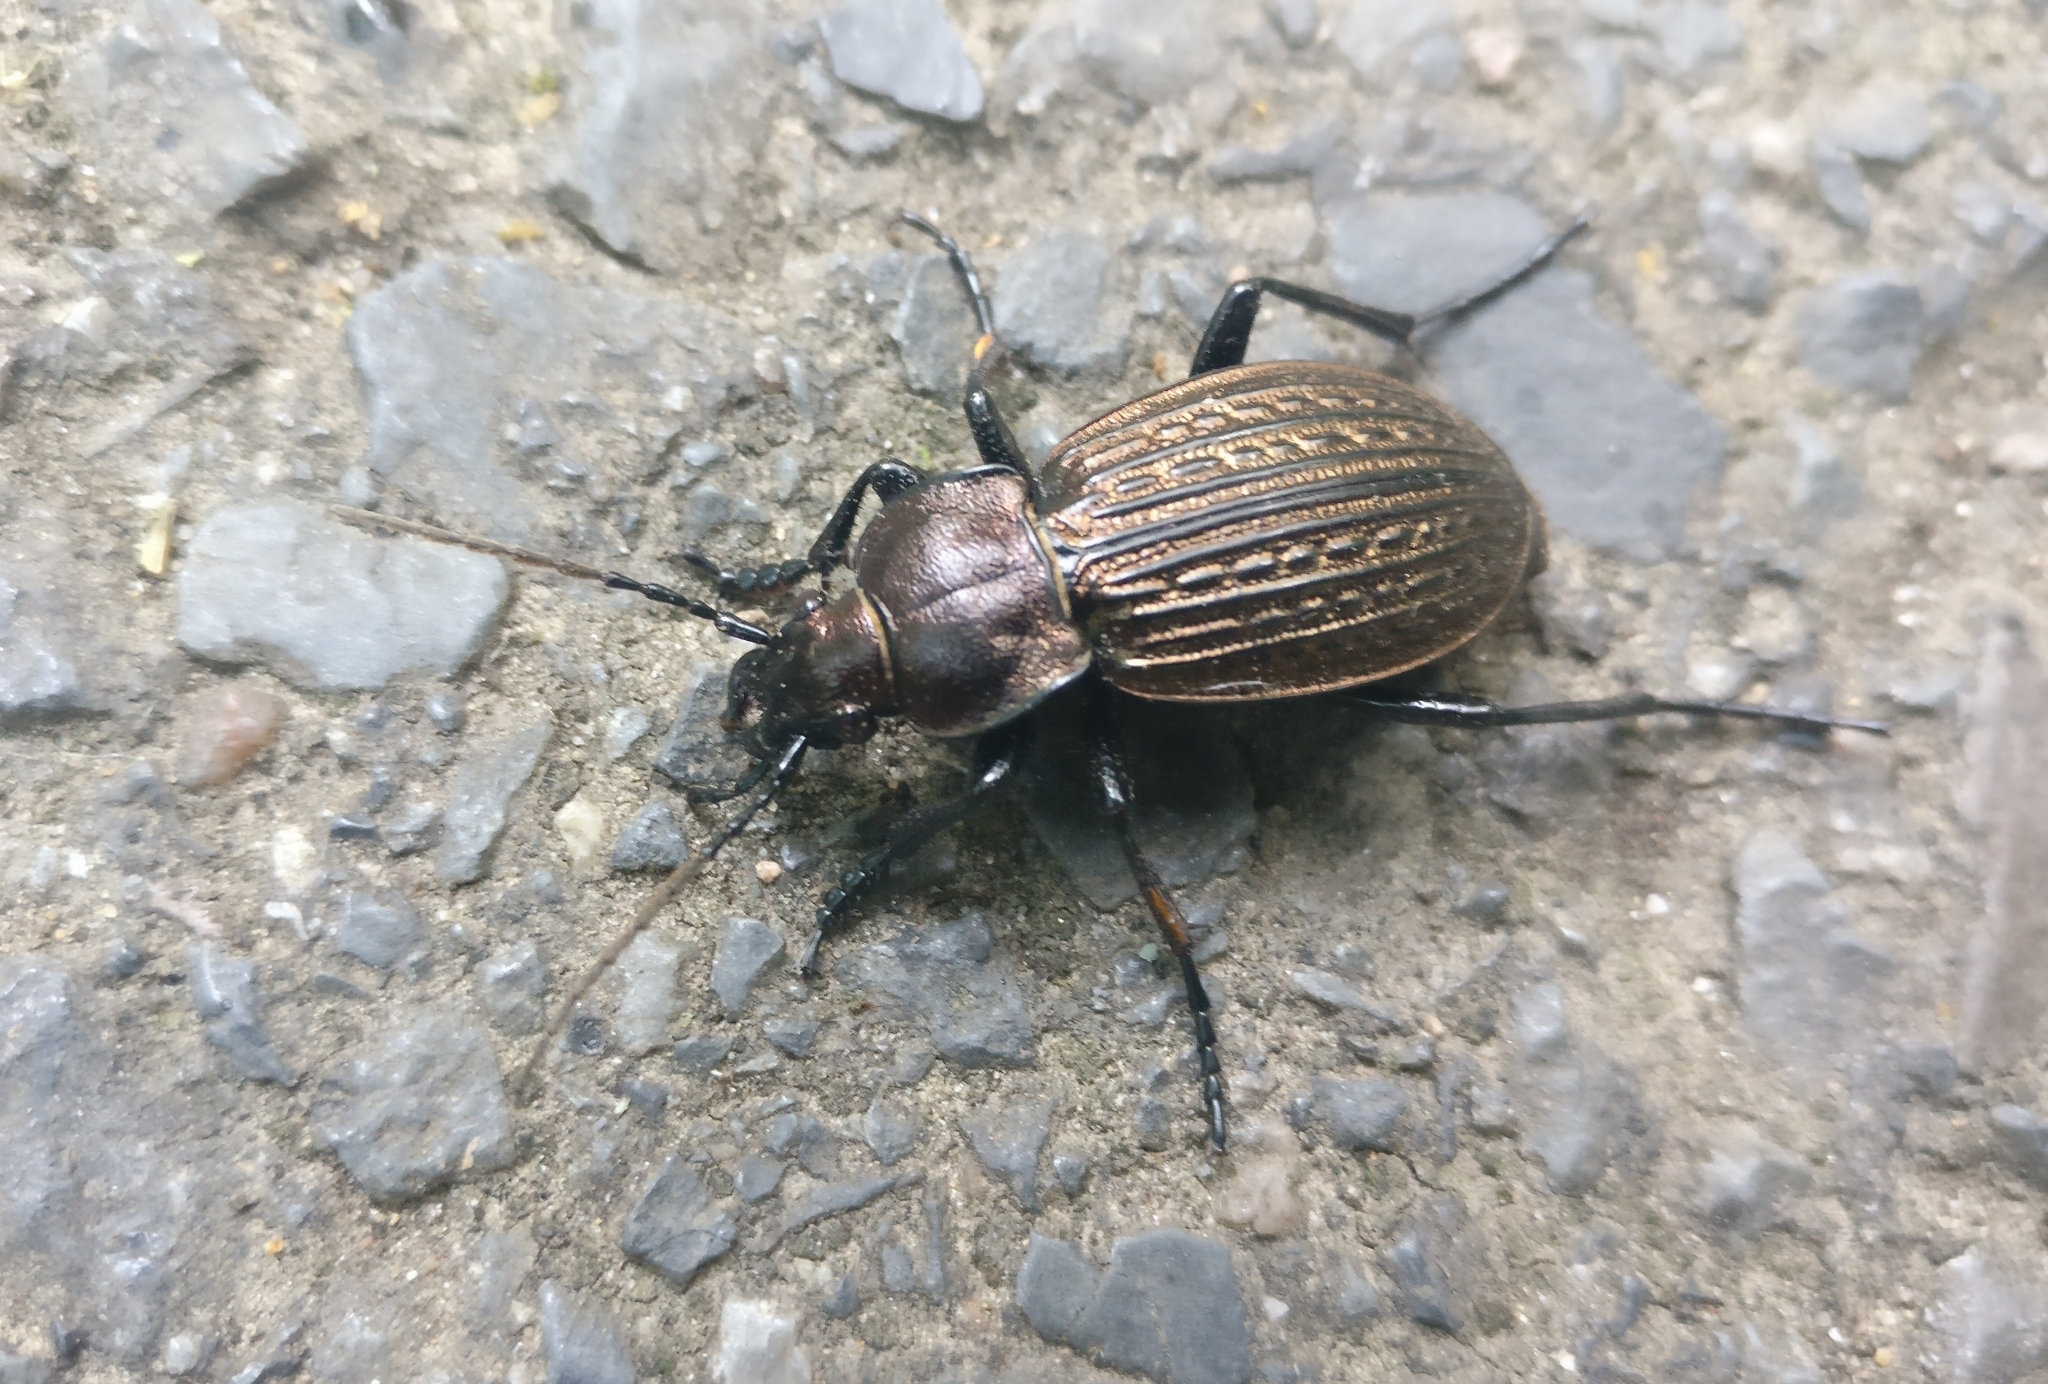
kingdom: Animalia
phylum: Arthropoda
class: Insecta
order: Coleoptera
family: Carabidae
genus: Carabus
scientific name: Carabus ulrichii
